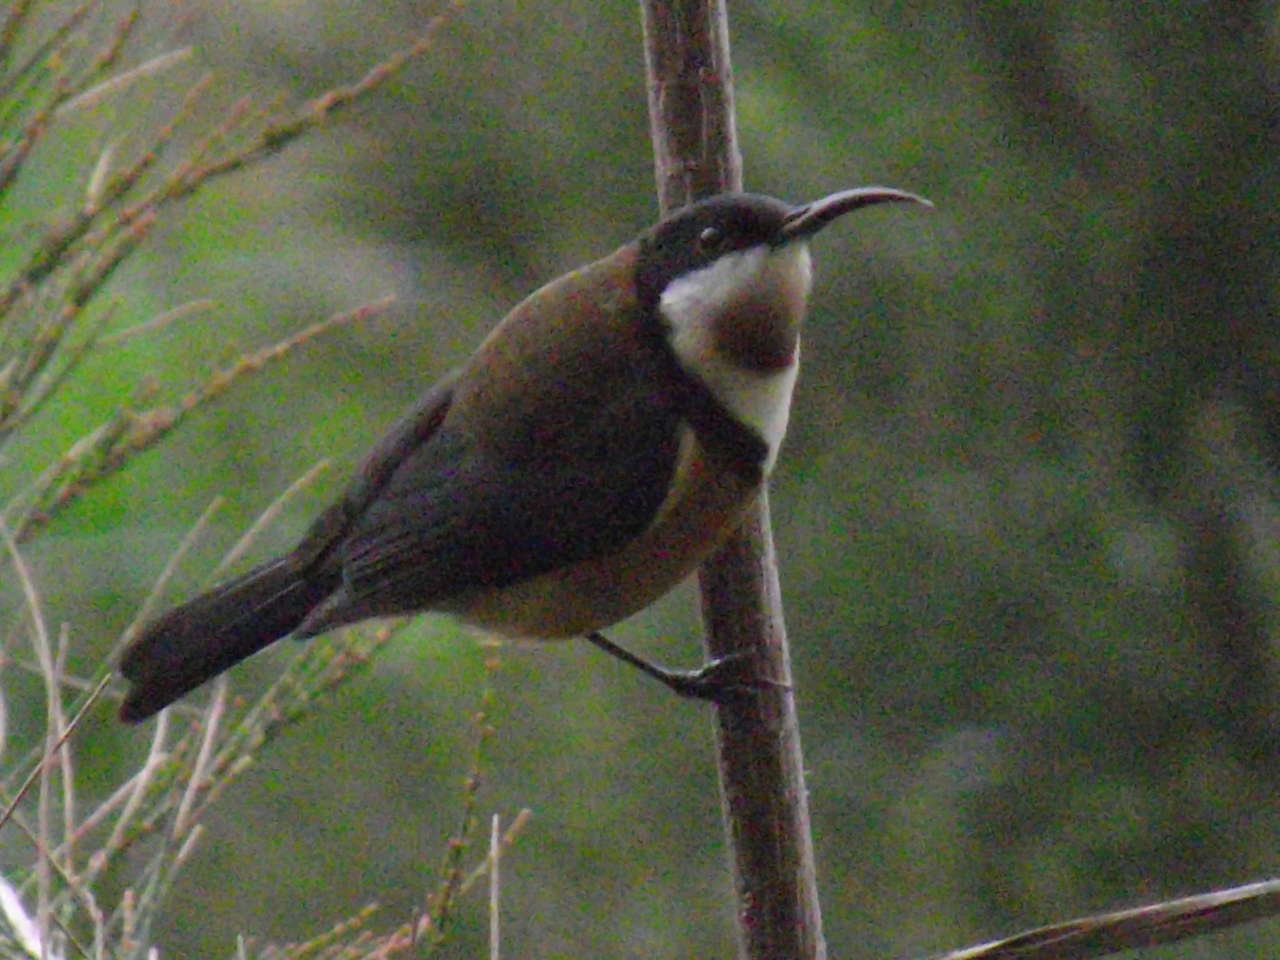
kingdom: Animalia
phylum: Chordata
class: Aves
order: Passeriformes
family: Meliphagidae
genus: Acanthorhynchus
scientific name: Acanthorhynchus tenuirostris
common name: Eastern spinebill
